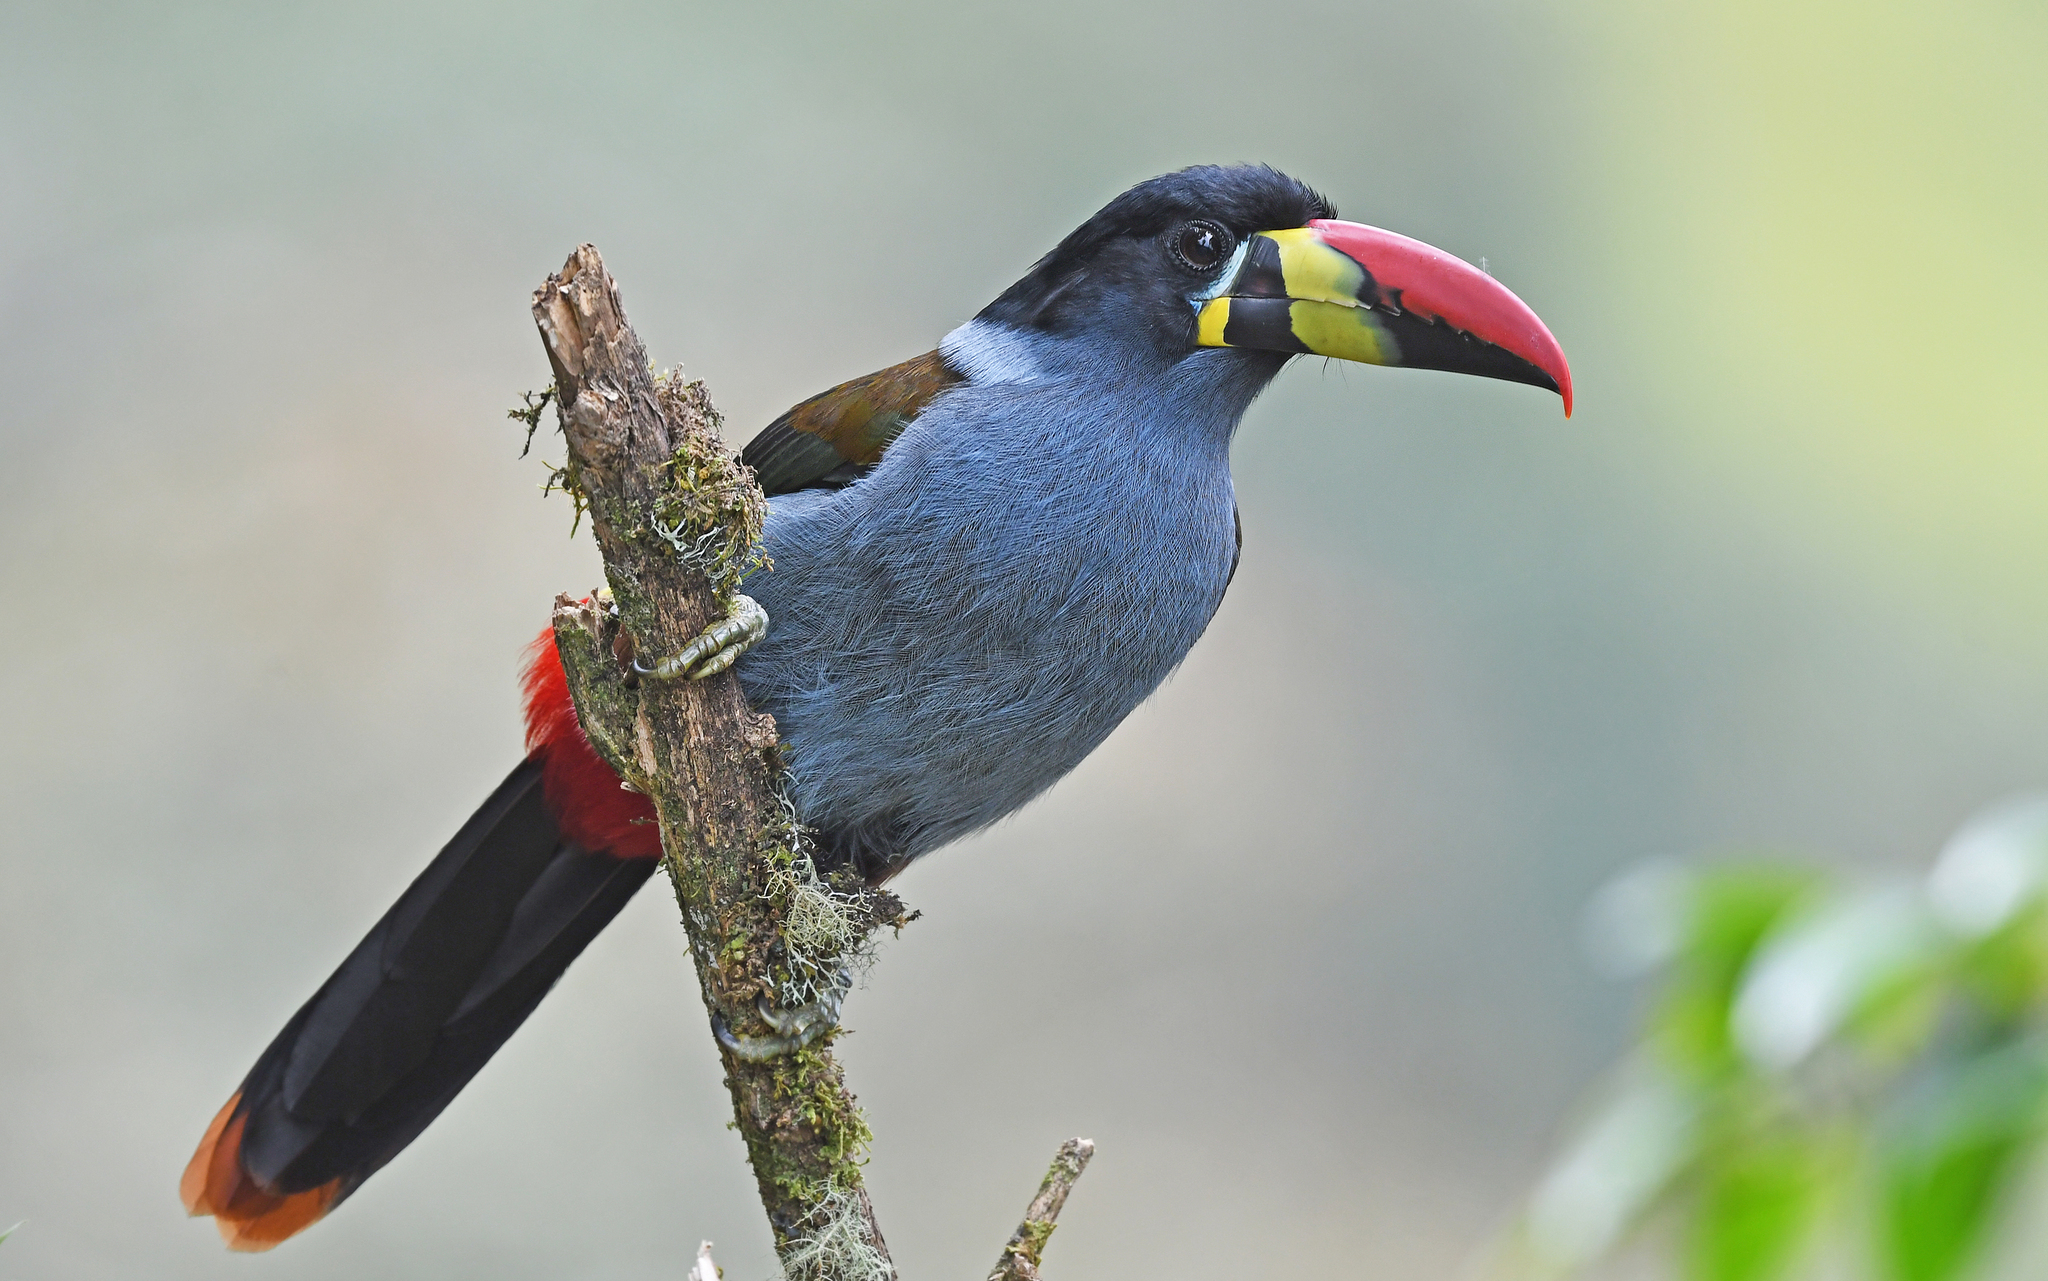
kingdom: Animalia
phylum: Chordata
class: Aves
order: Piciformes
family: Ramphastidae
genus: Andigena
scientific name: Andigena hypoglauca
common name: Grey-breasted mountain toucan
